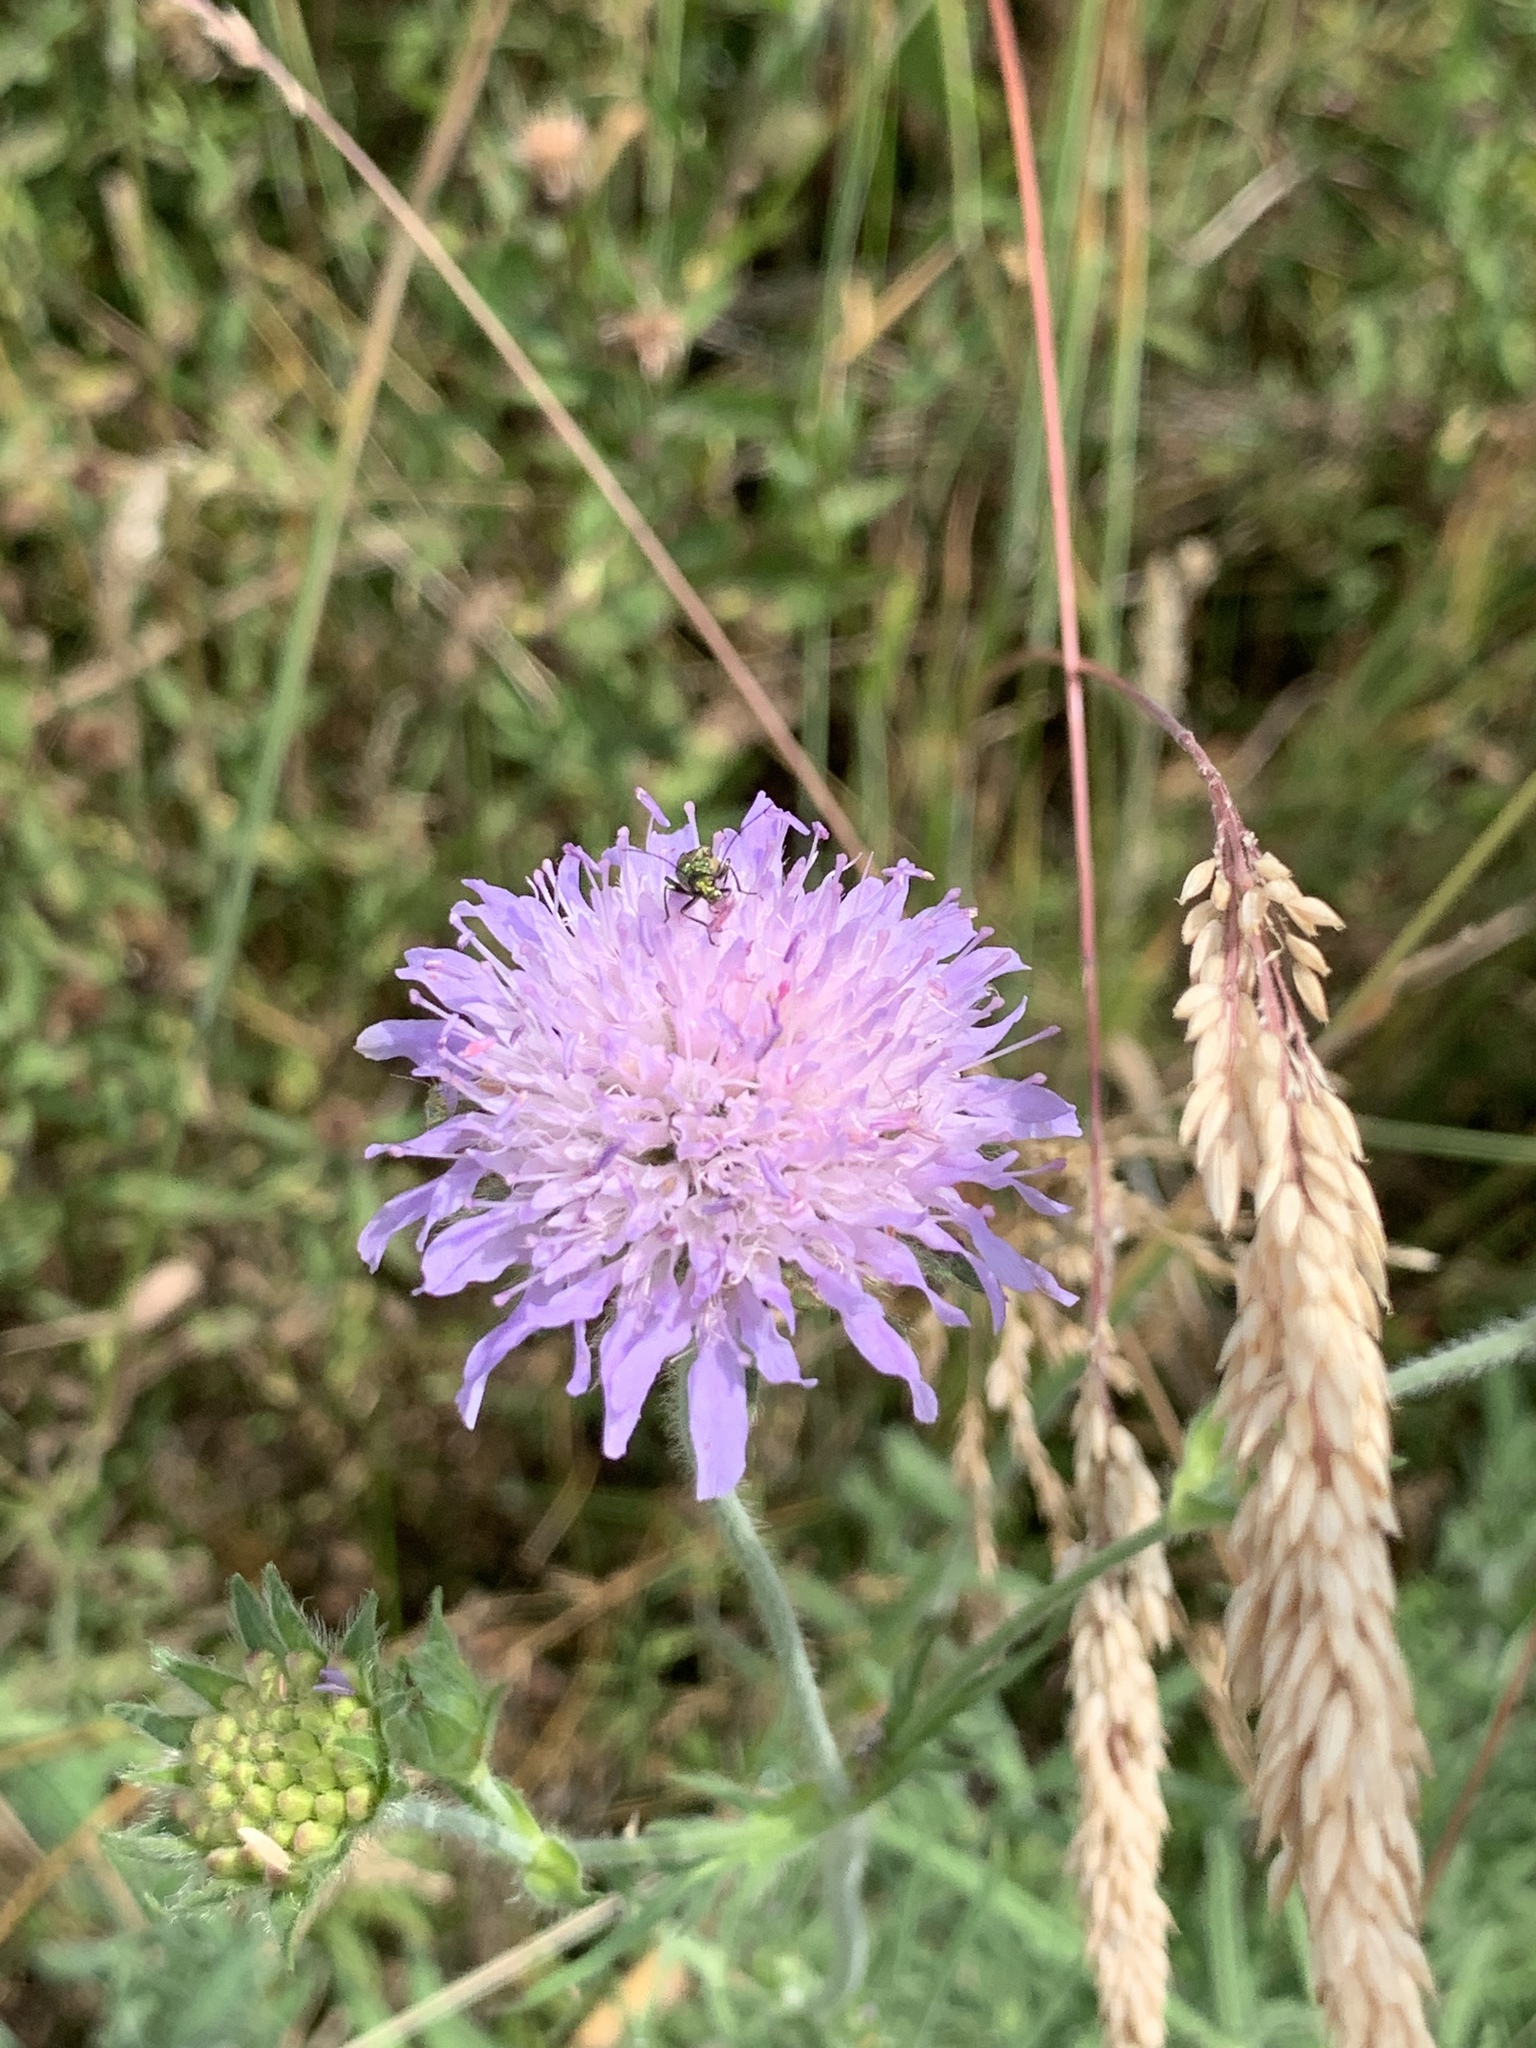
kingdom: Plantae
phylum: Tracheophyta
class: Magnoliopsida
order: Dipsacales
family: Caprifoliaceae
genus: Knautia
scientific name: Knautia arvensis
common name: Field scabiosa
